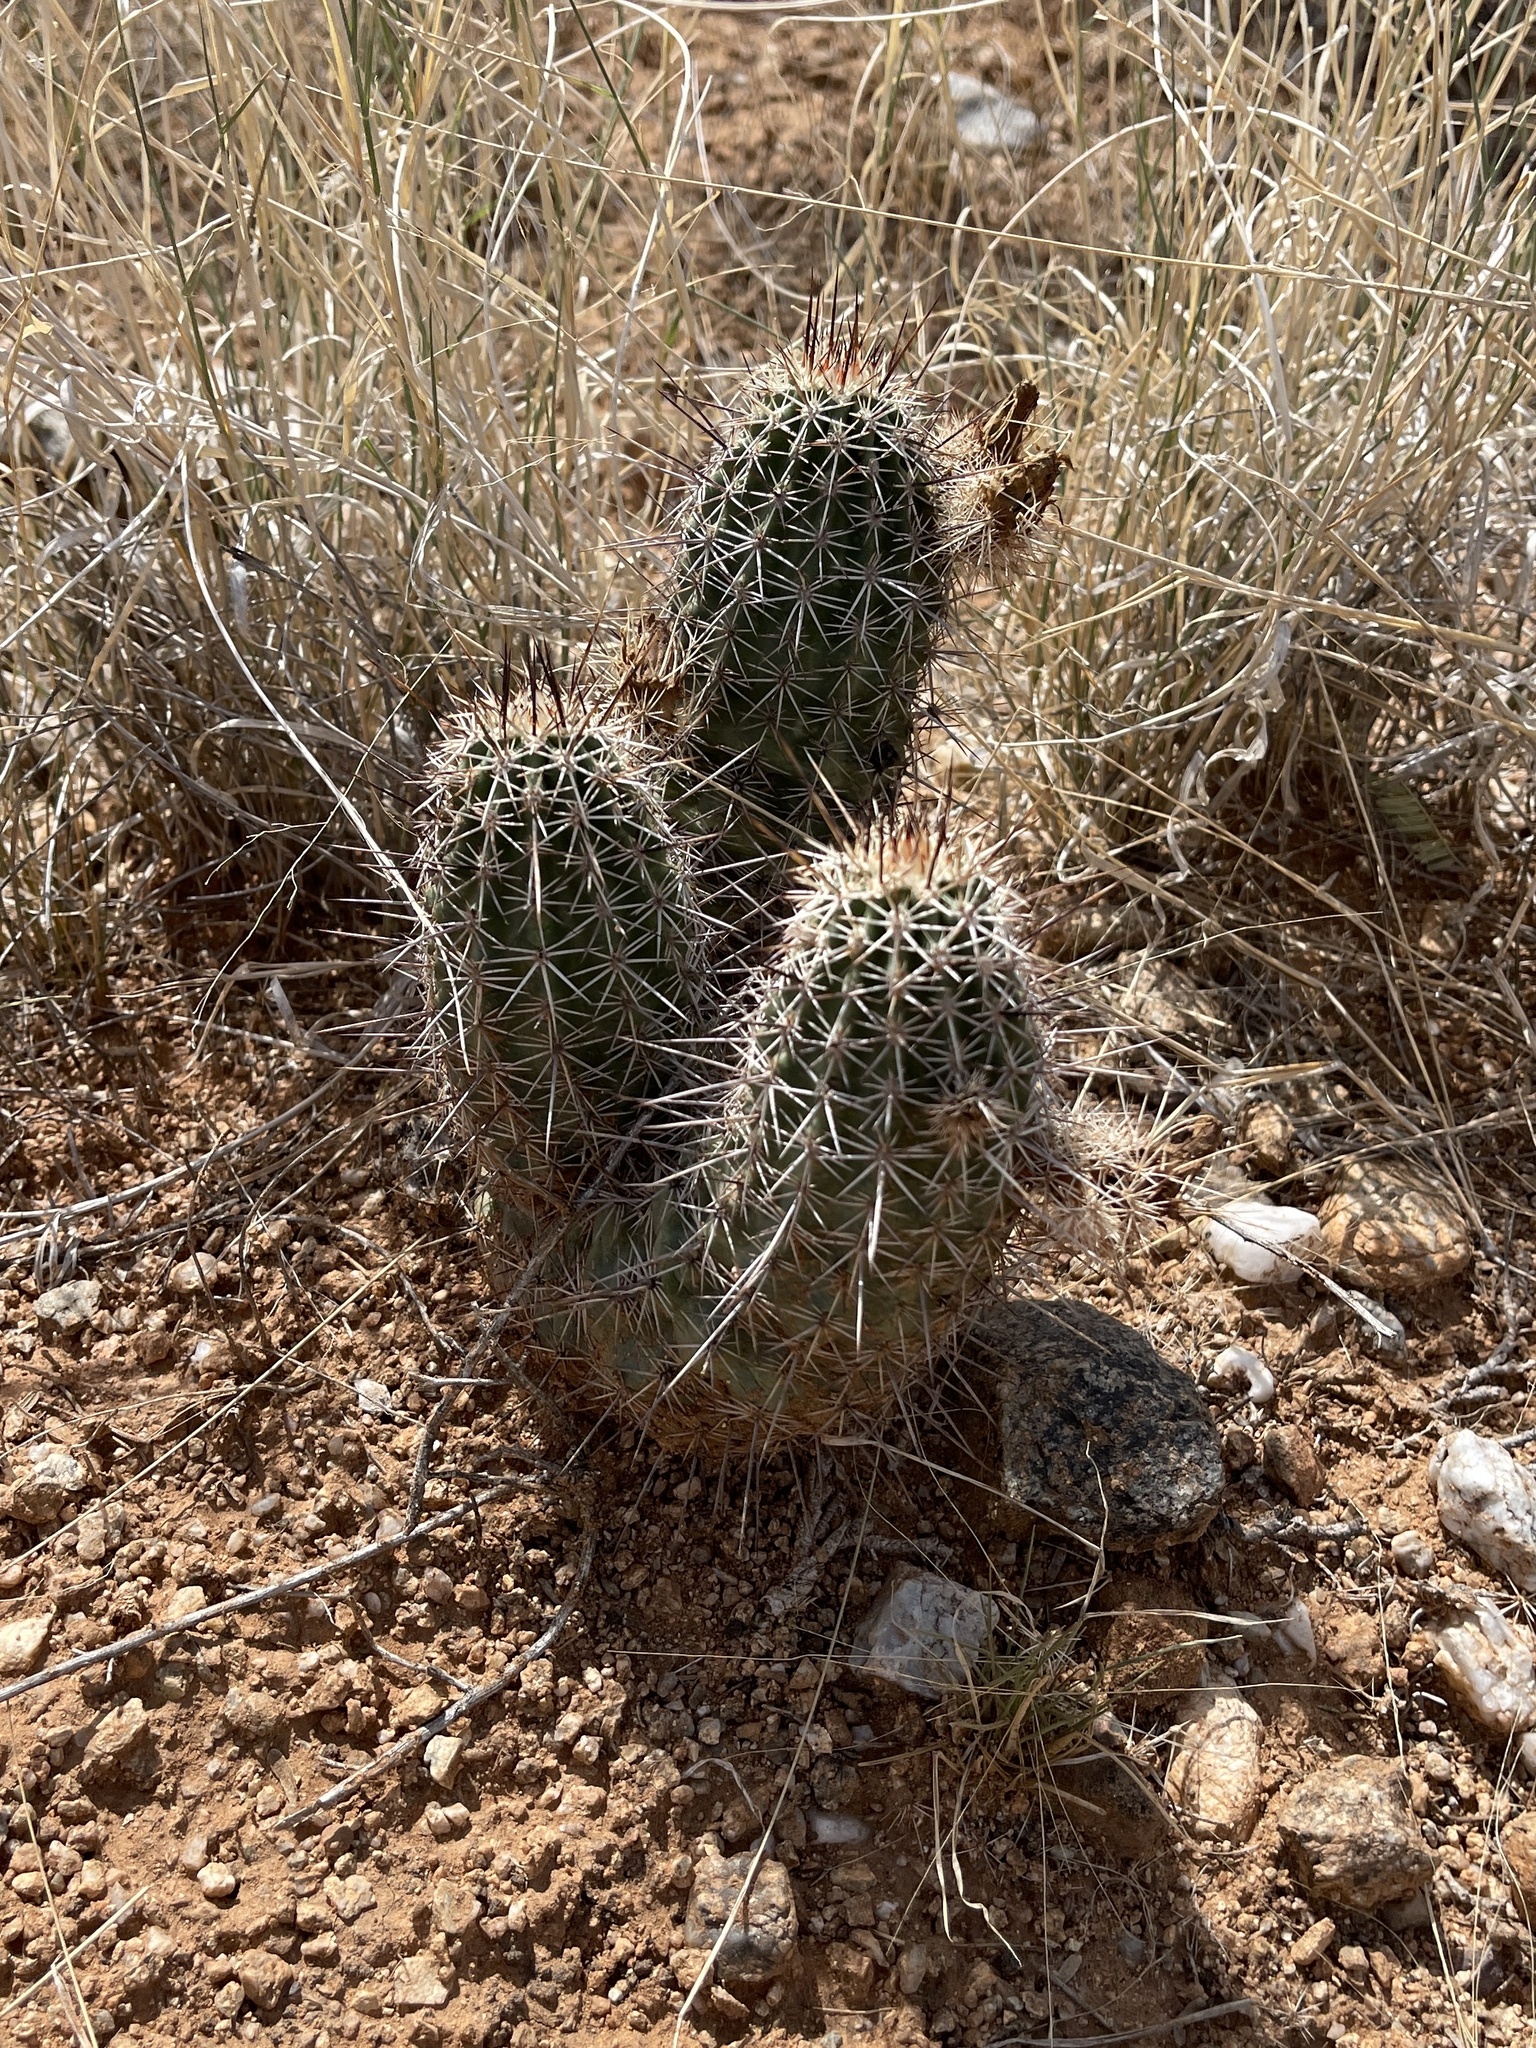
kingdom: Plantae
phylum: Tracheophyta
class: Magnoliopsida
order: Caryophyllales
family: Cactaceae
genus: Echinocereus
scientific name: Echinocereus fasciculatus
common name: Bundle hedgehog
